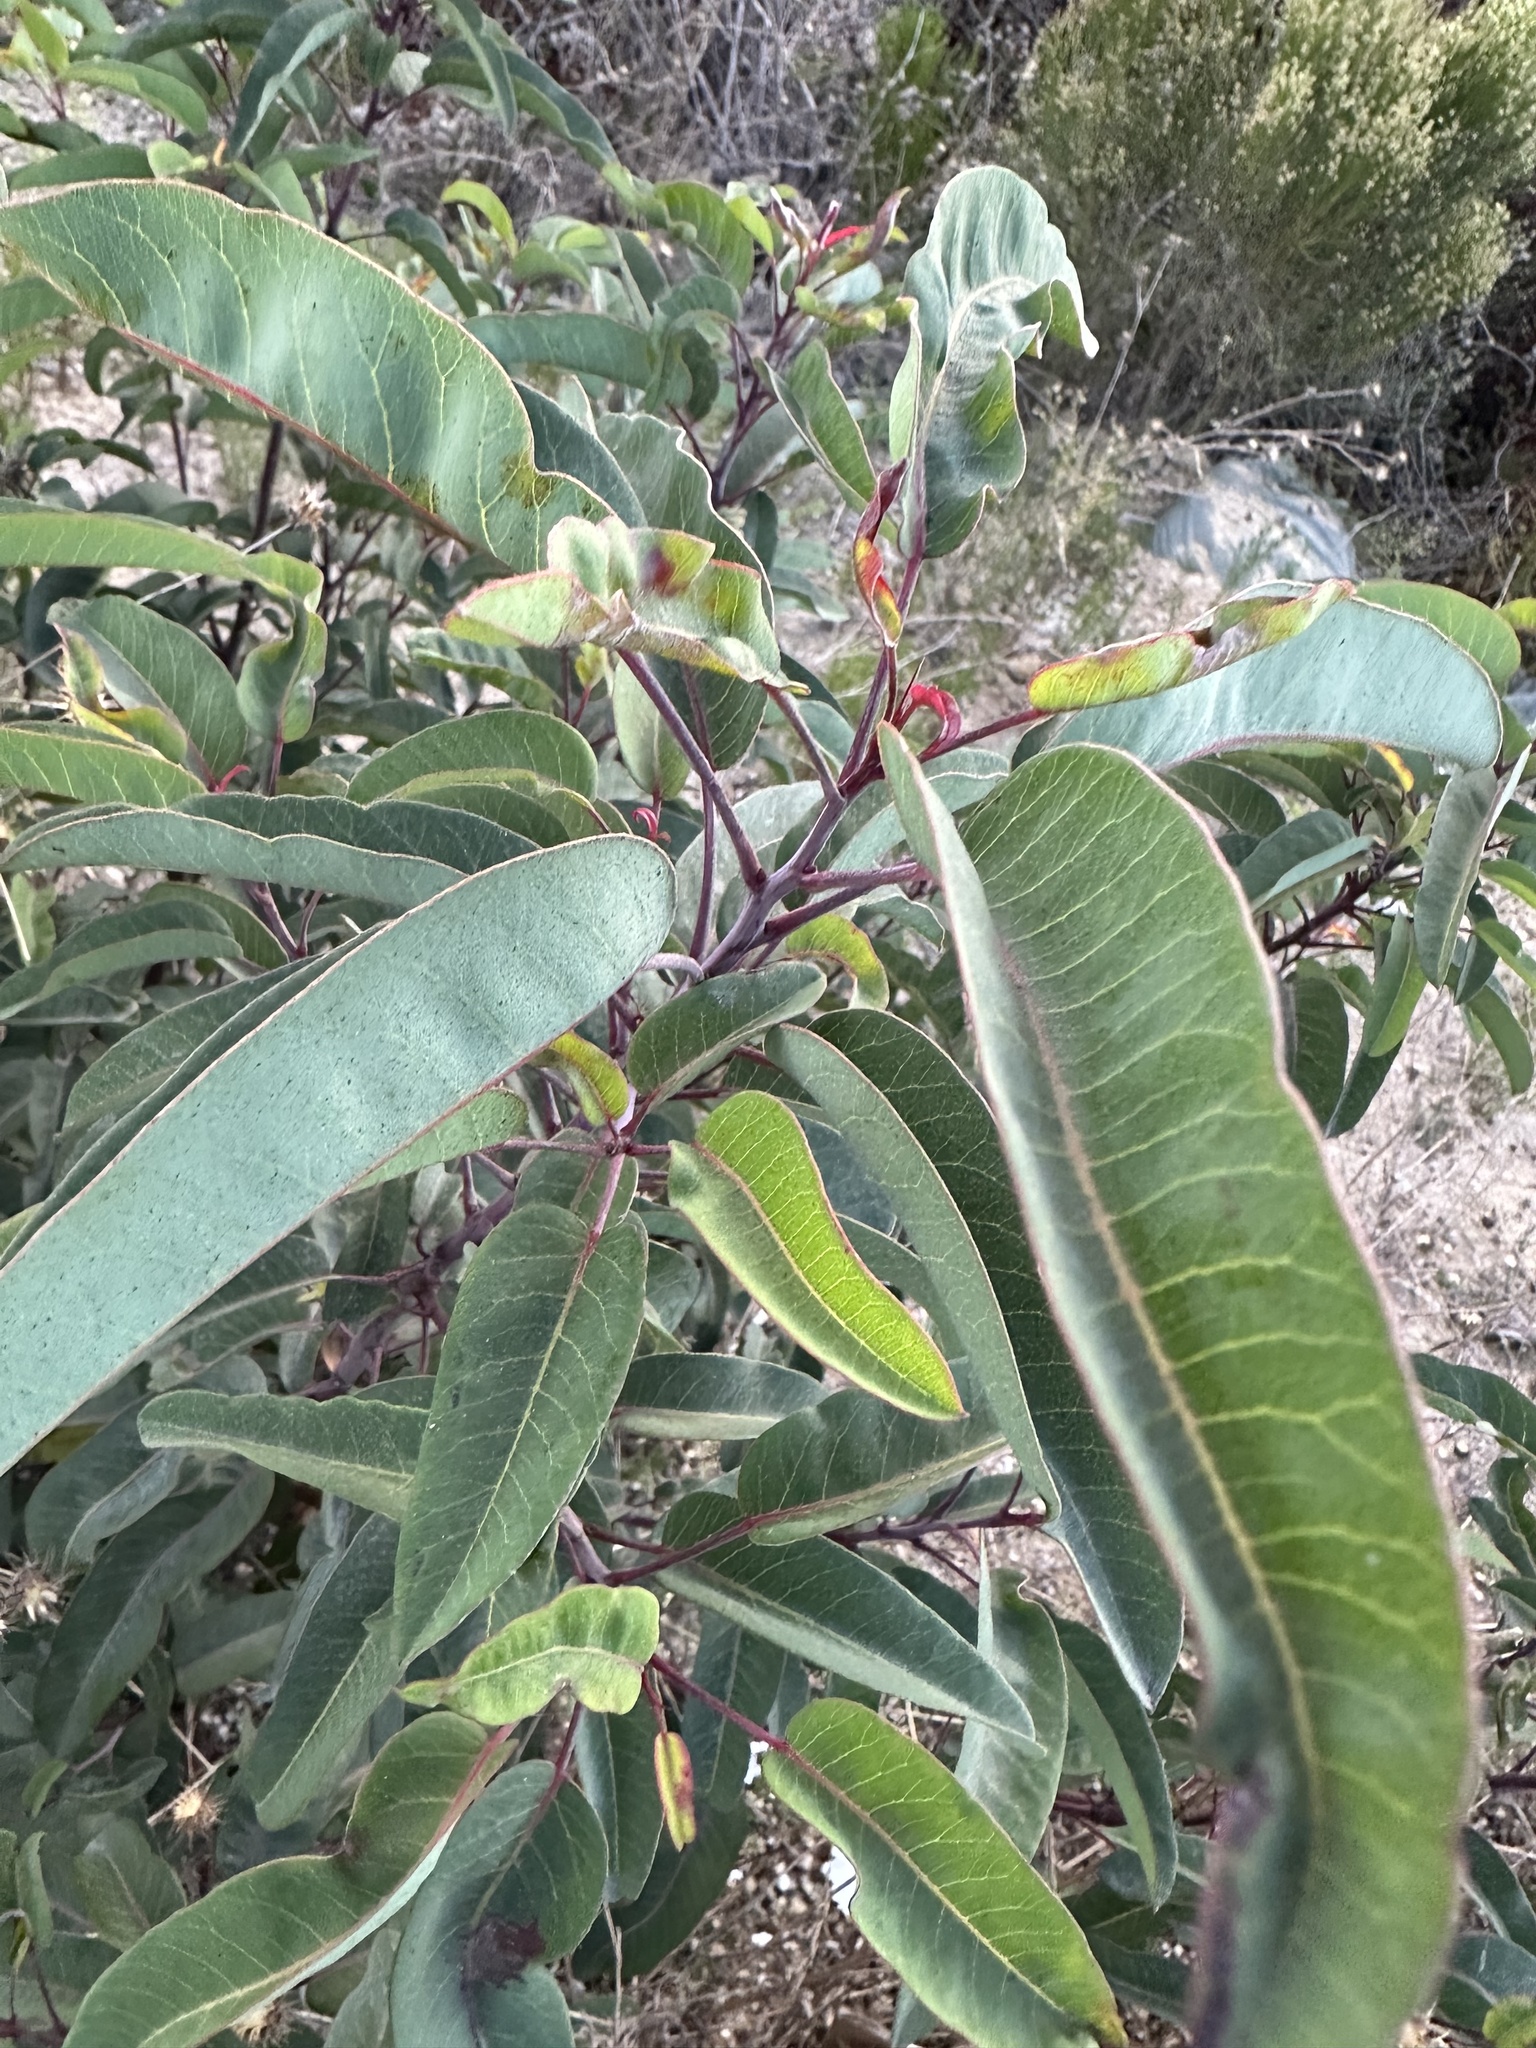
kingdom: Plantae
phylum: Tracheophyta
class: Magnoliopsida
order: Sapindales
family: Anacardiaceae
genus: Malosma
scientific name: Malosma laurina
